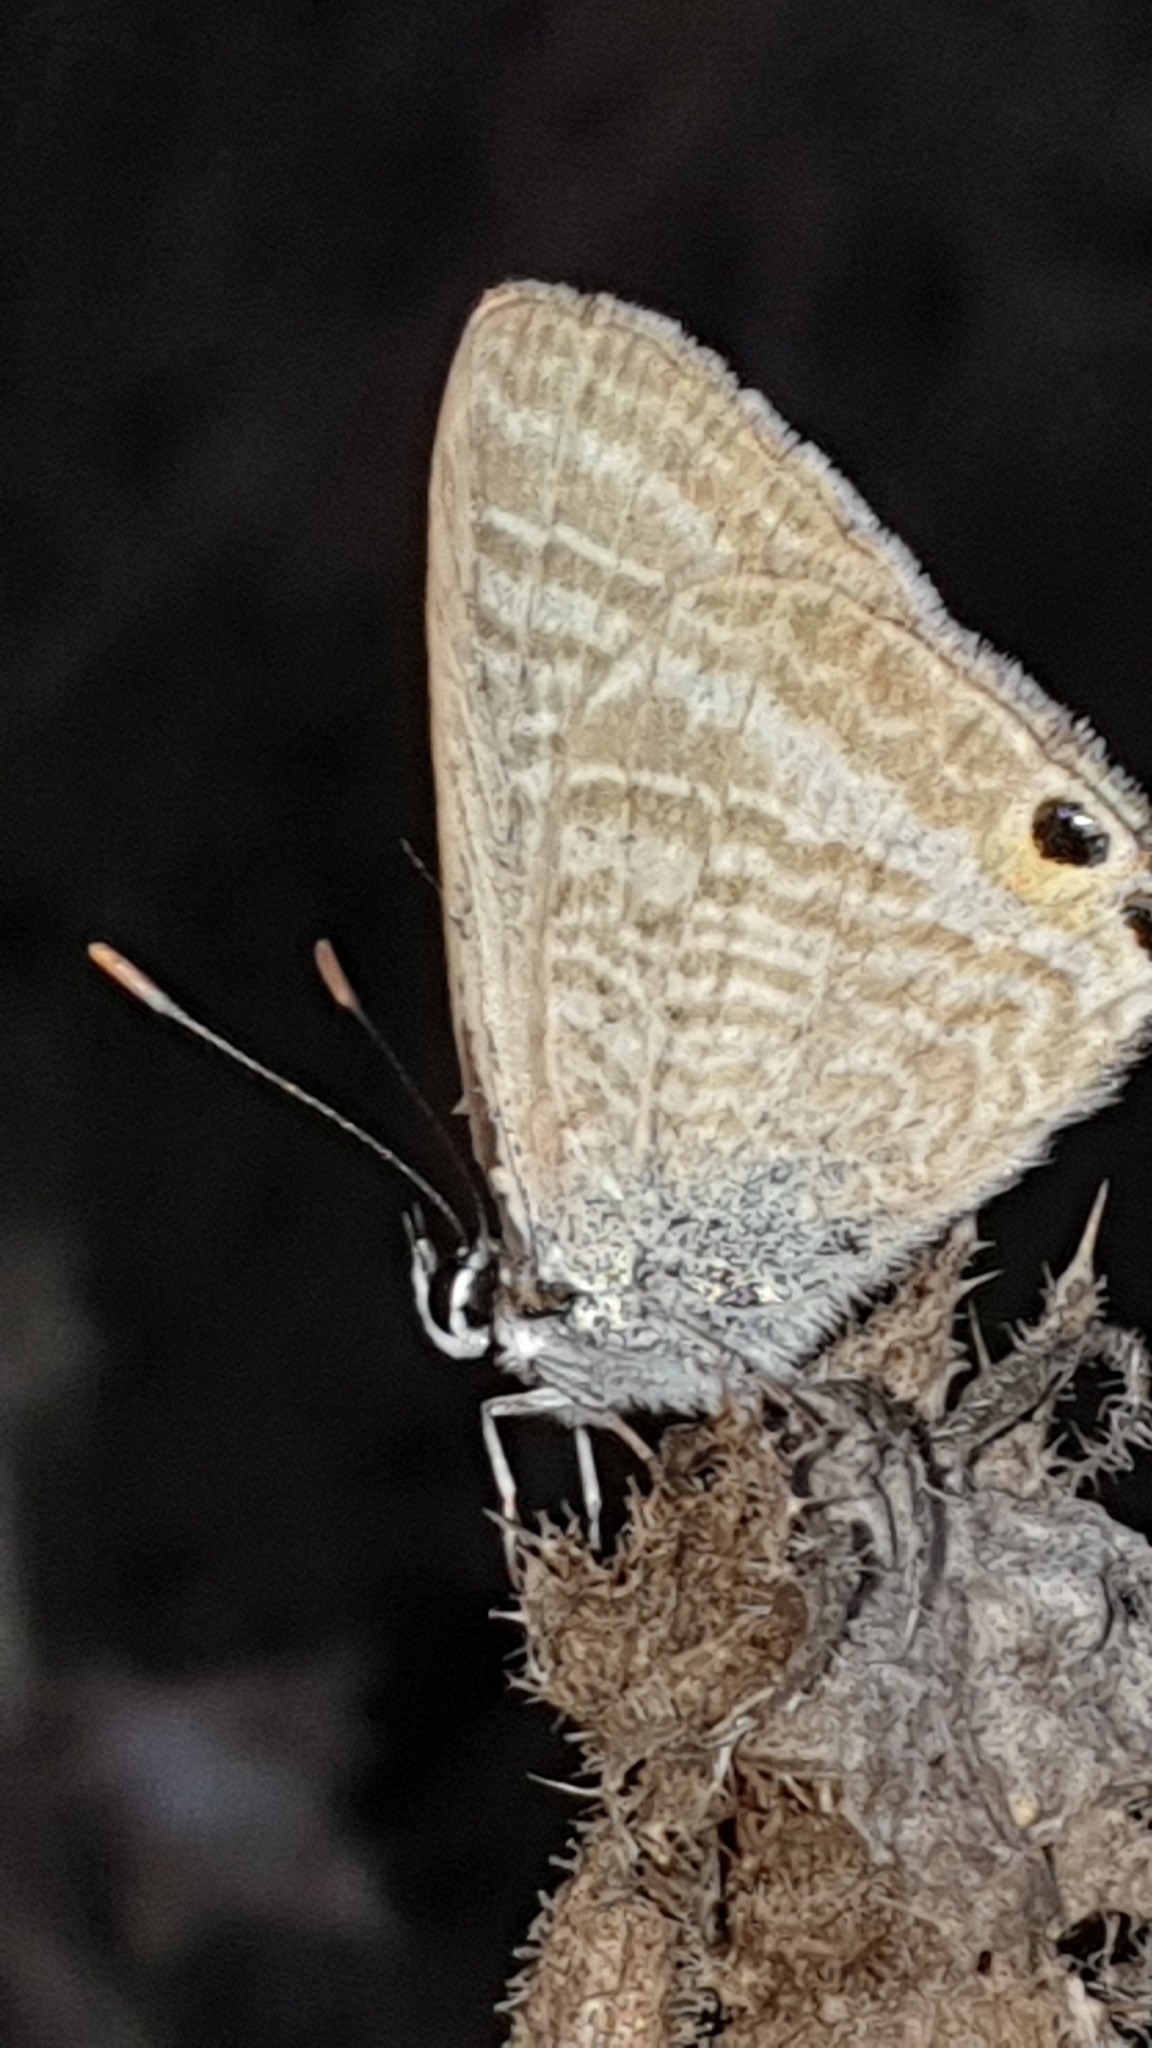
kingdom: Animalia
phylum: Arthropoda
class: Insecta
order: Lepidoptera
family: Lycaenidae
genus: Lampides
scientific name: Lampides boeticus
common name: Long-tailed blue
